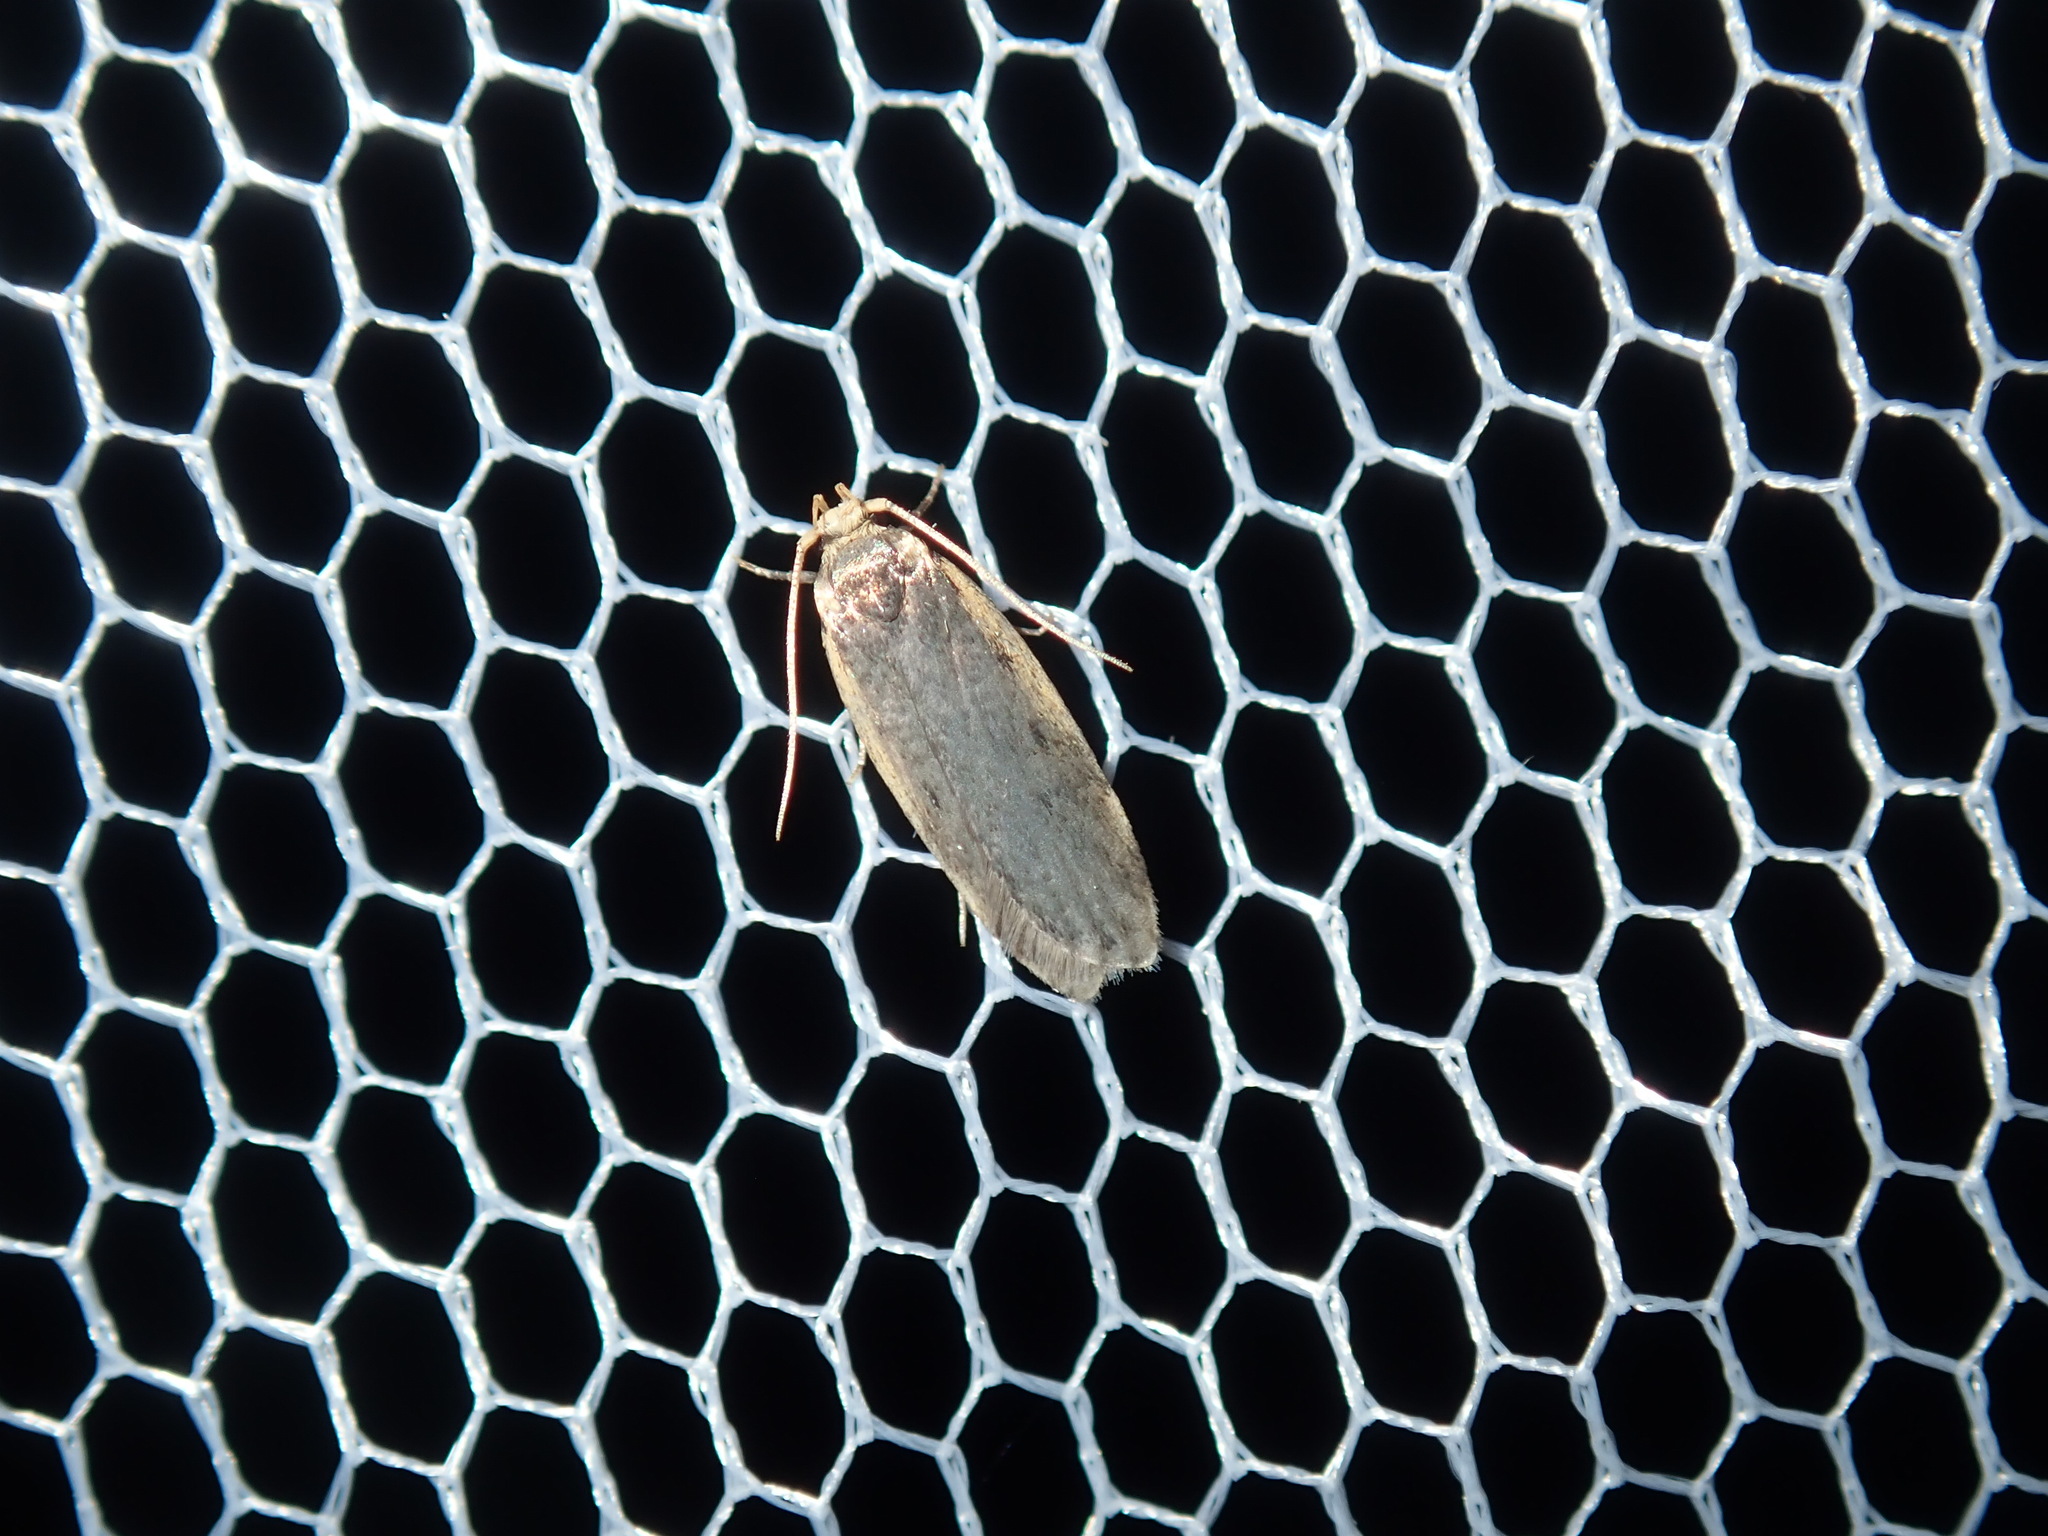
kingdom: Animalia
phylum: Arthropoda
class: Insecta
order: Lepidoptera
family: Oecophoridae
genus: Hoplostega
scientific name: Hoplostega ochroma
